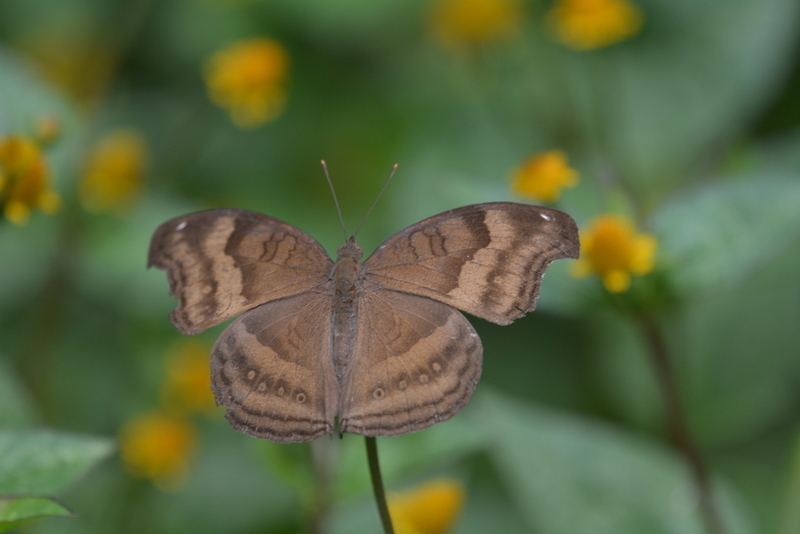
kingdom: Animalia
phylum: Arthropoda
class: Insecta
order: Lepidoptera
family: Nymphalidae
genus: Junonia
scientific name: Junonia iphita
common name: Chocolate pansy
